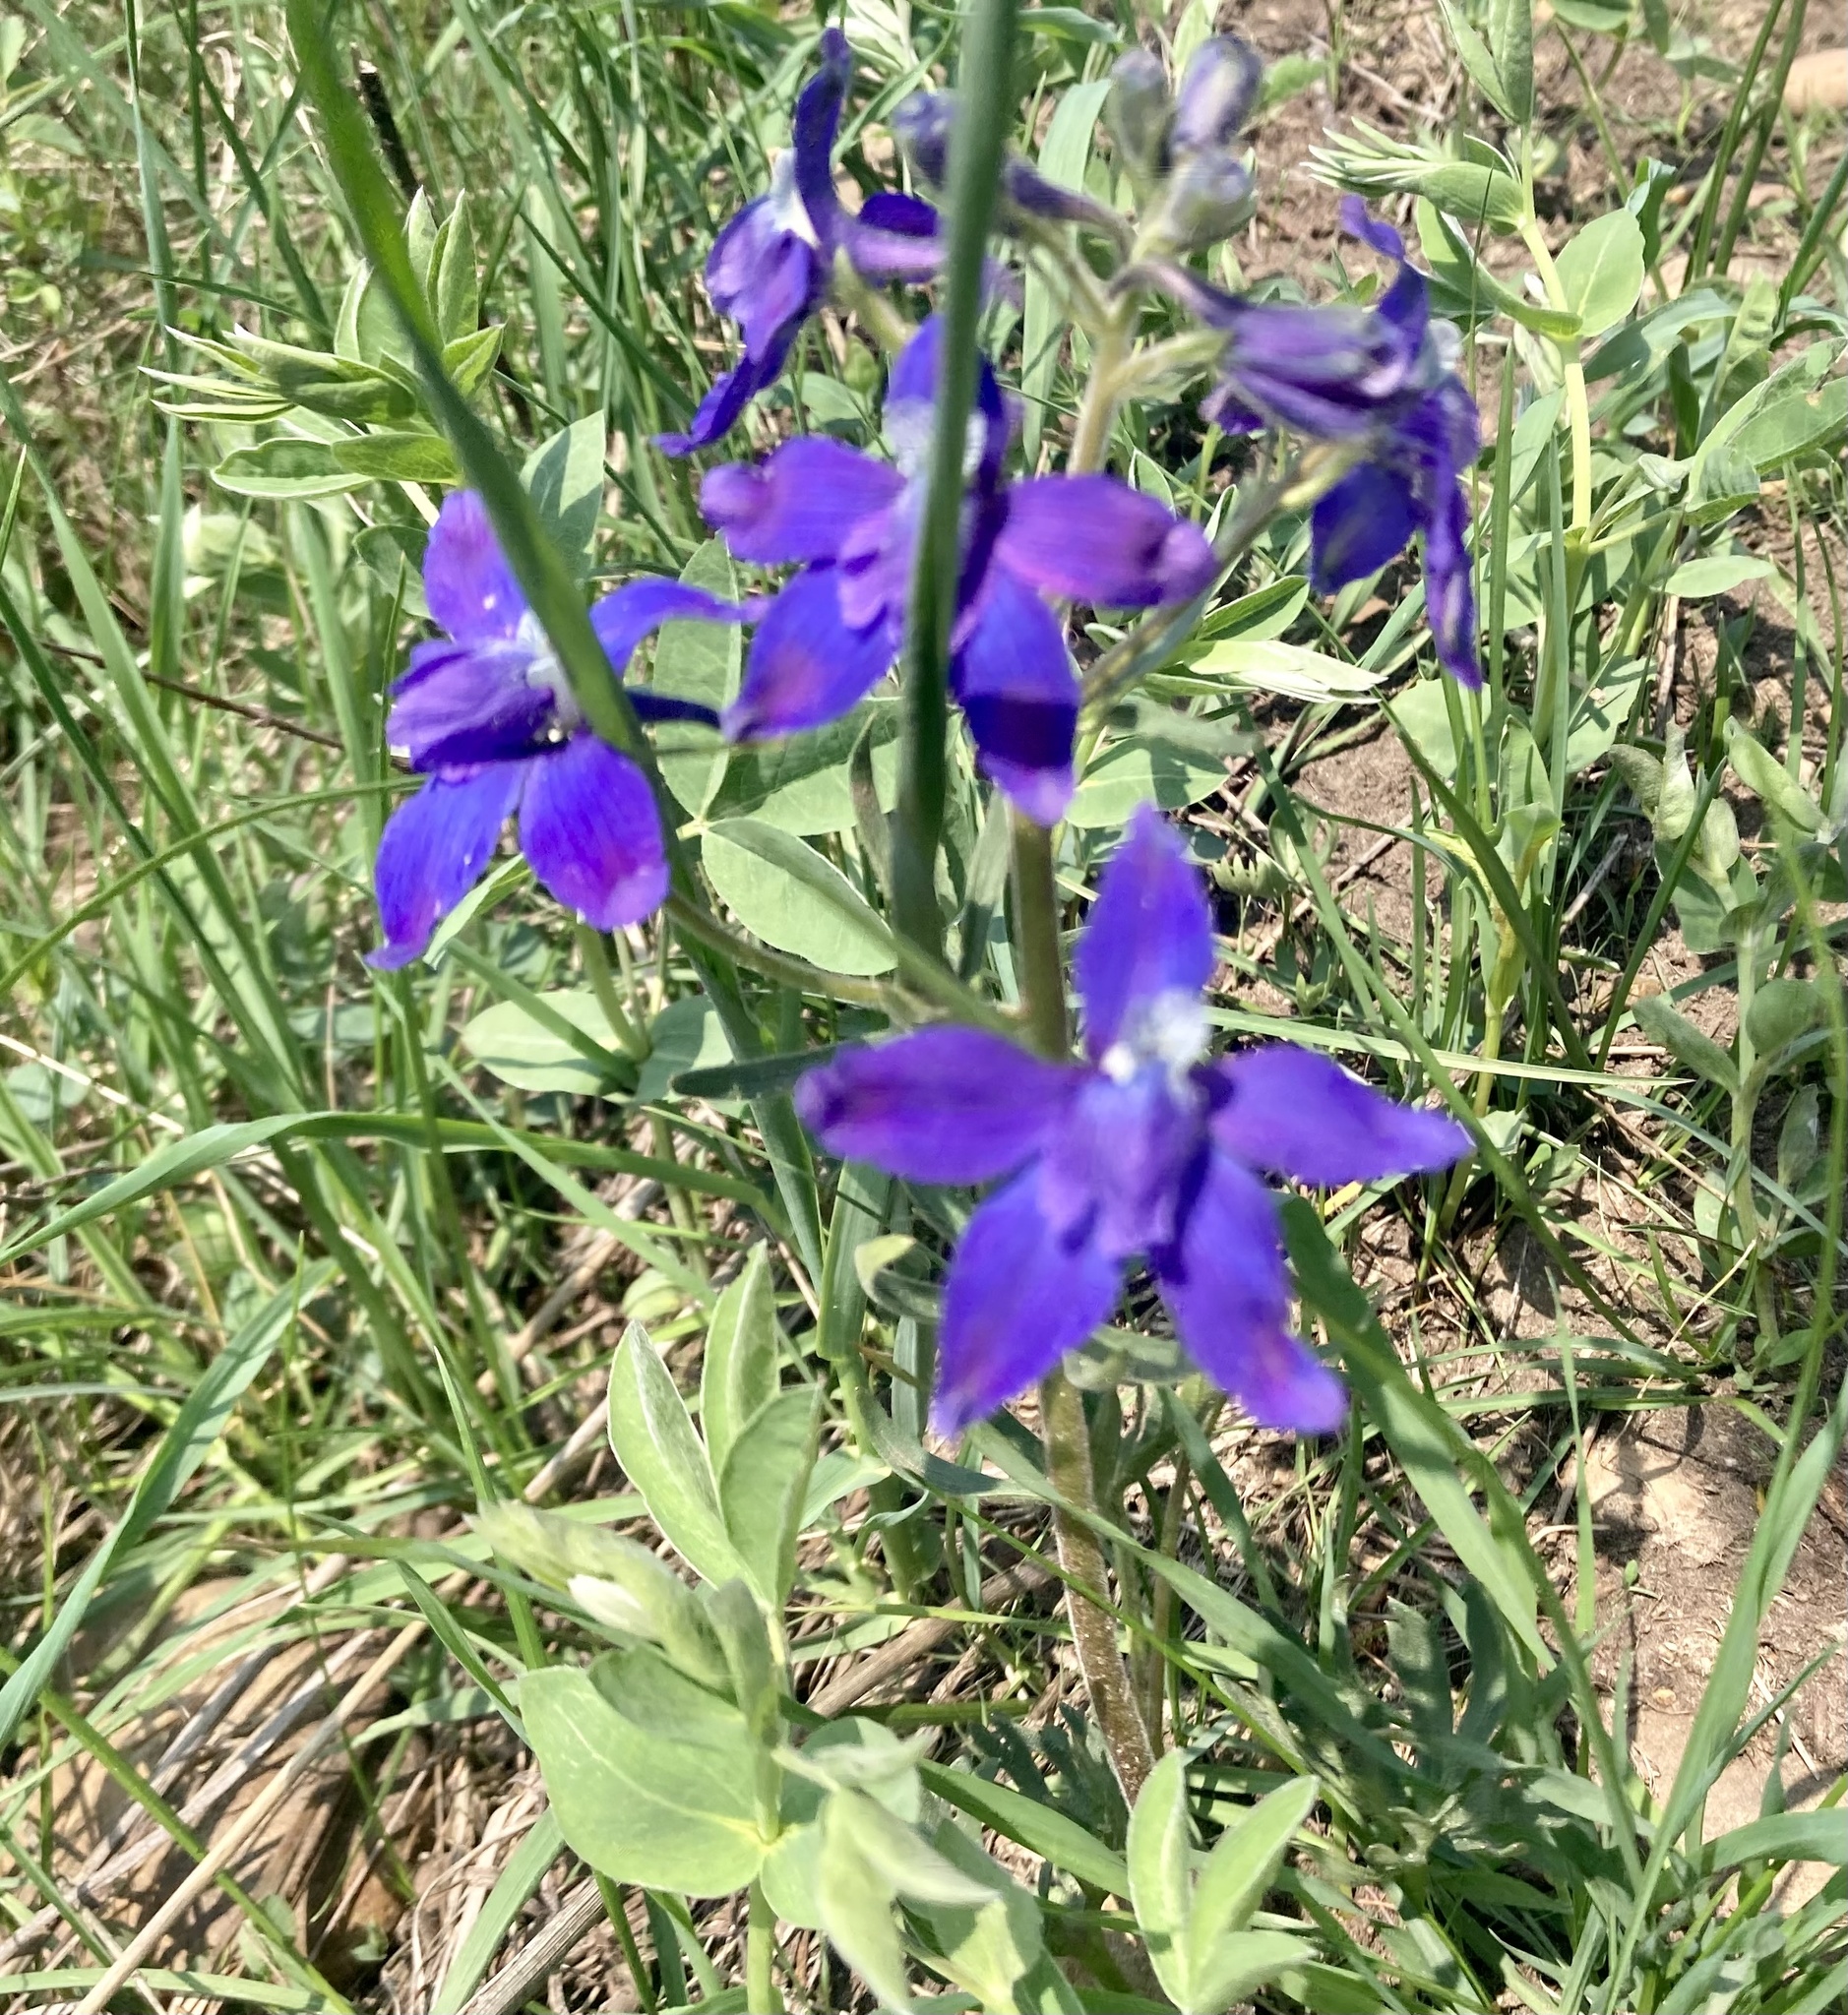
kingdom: Plantae
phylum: Tracheophyta
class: Magnoliopsida
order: Ranunculales
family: Ranunculaceae
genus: Delphinium
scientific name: Delphinium bicolor
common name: Low larkspur
